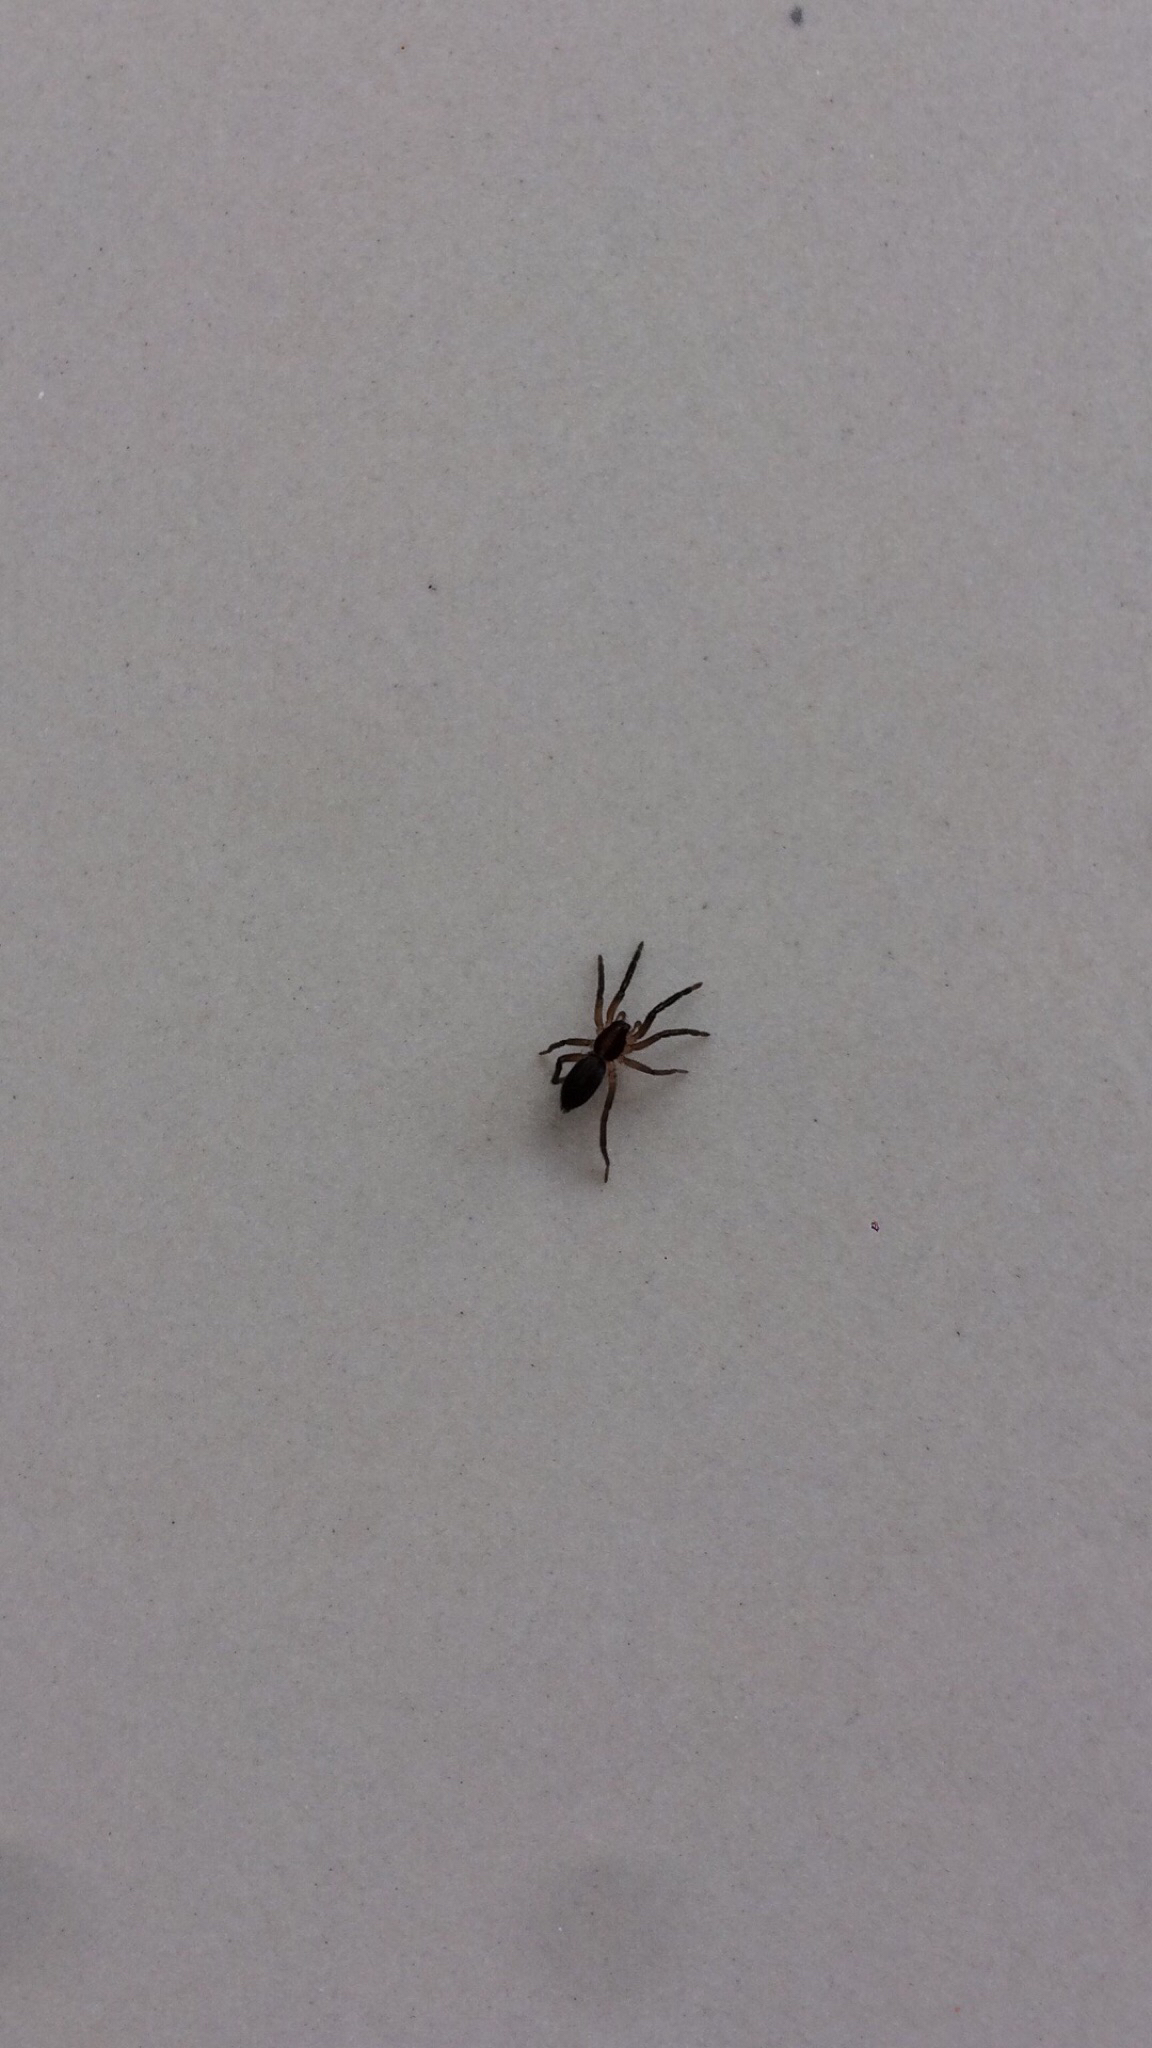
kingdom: Animalia
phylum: Arthropoda
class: Arachnida
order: Araneae
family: Miturgidae
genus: Teminius
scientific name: Teminius insularis
